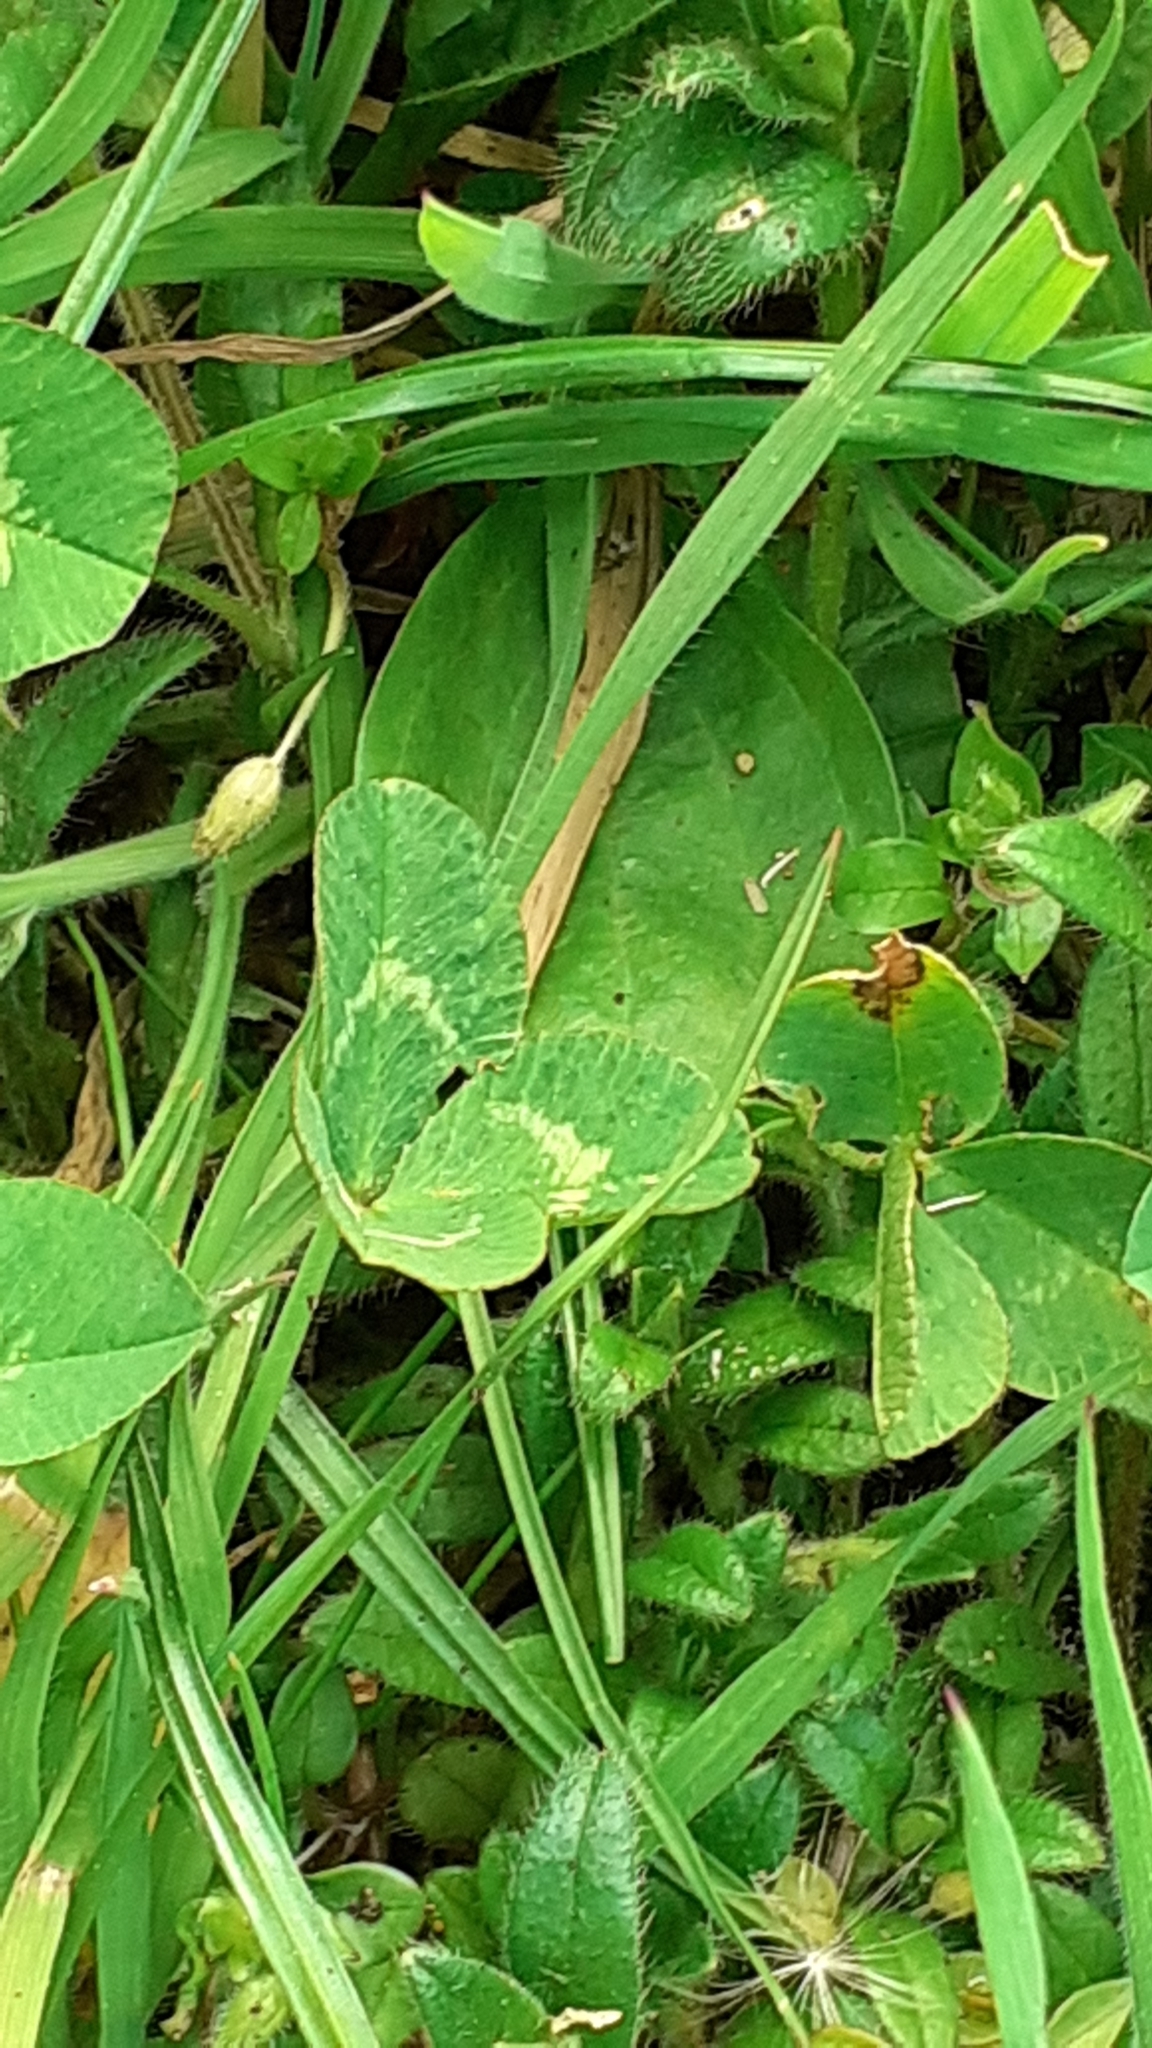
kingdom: Plantae
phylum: Tracheophyta
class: Magnoliopsida
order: Fabales
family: Fabaceae
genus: Trifolium
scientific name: Trifolium repens
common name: White clover
